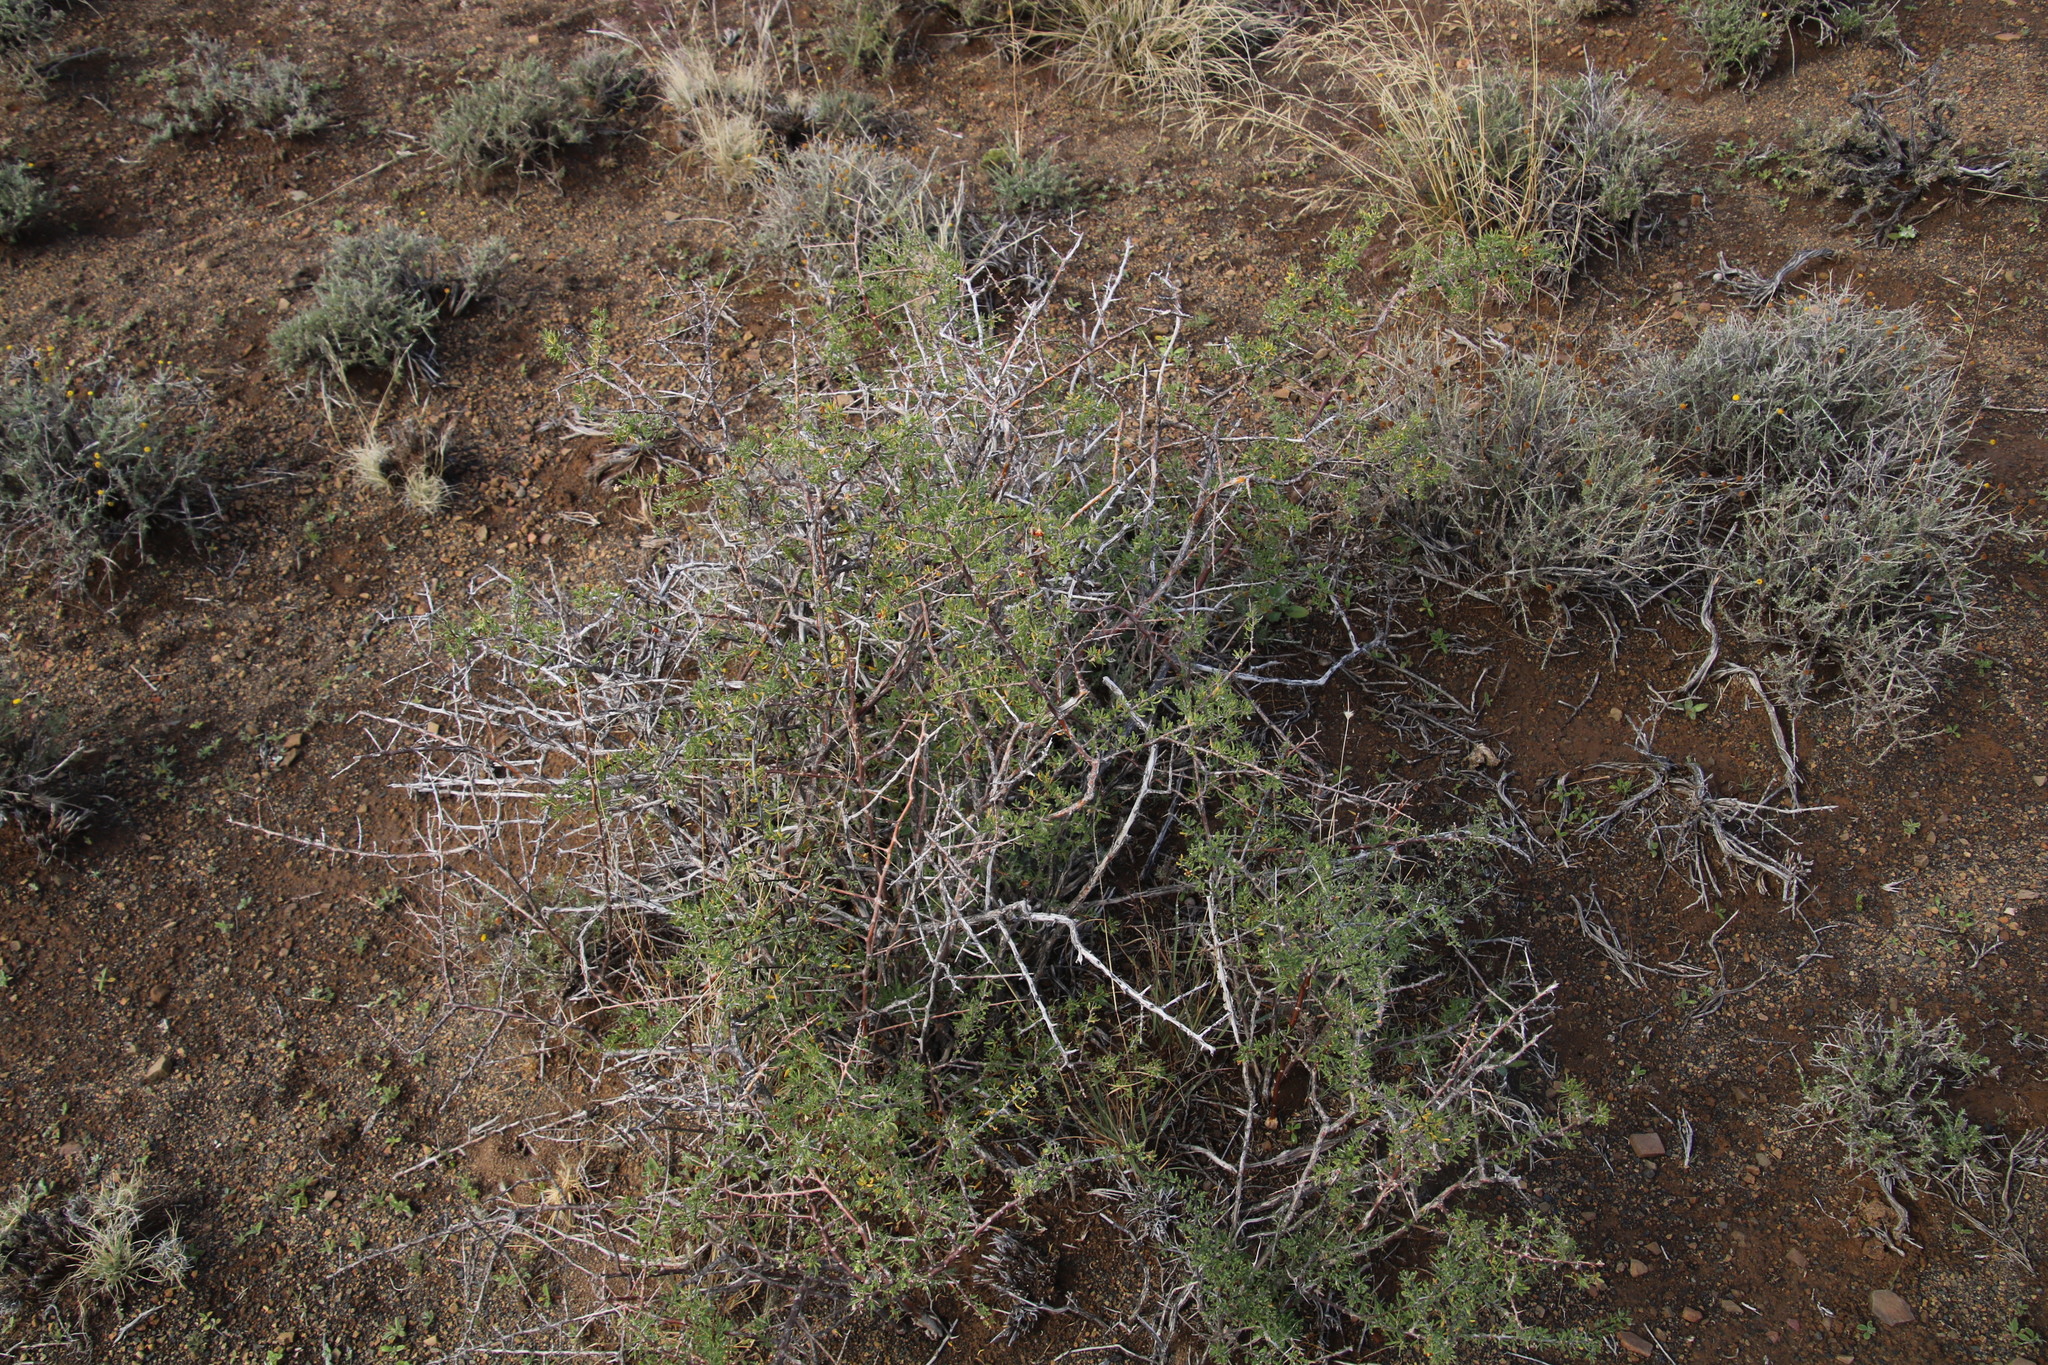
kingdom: Plantae
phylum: Tracheophyta
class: Magnoliopsida
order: Solanales
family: Solanaceae
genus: Lycium
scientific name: Lycium horridum
